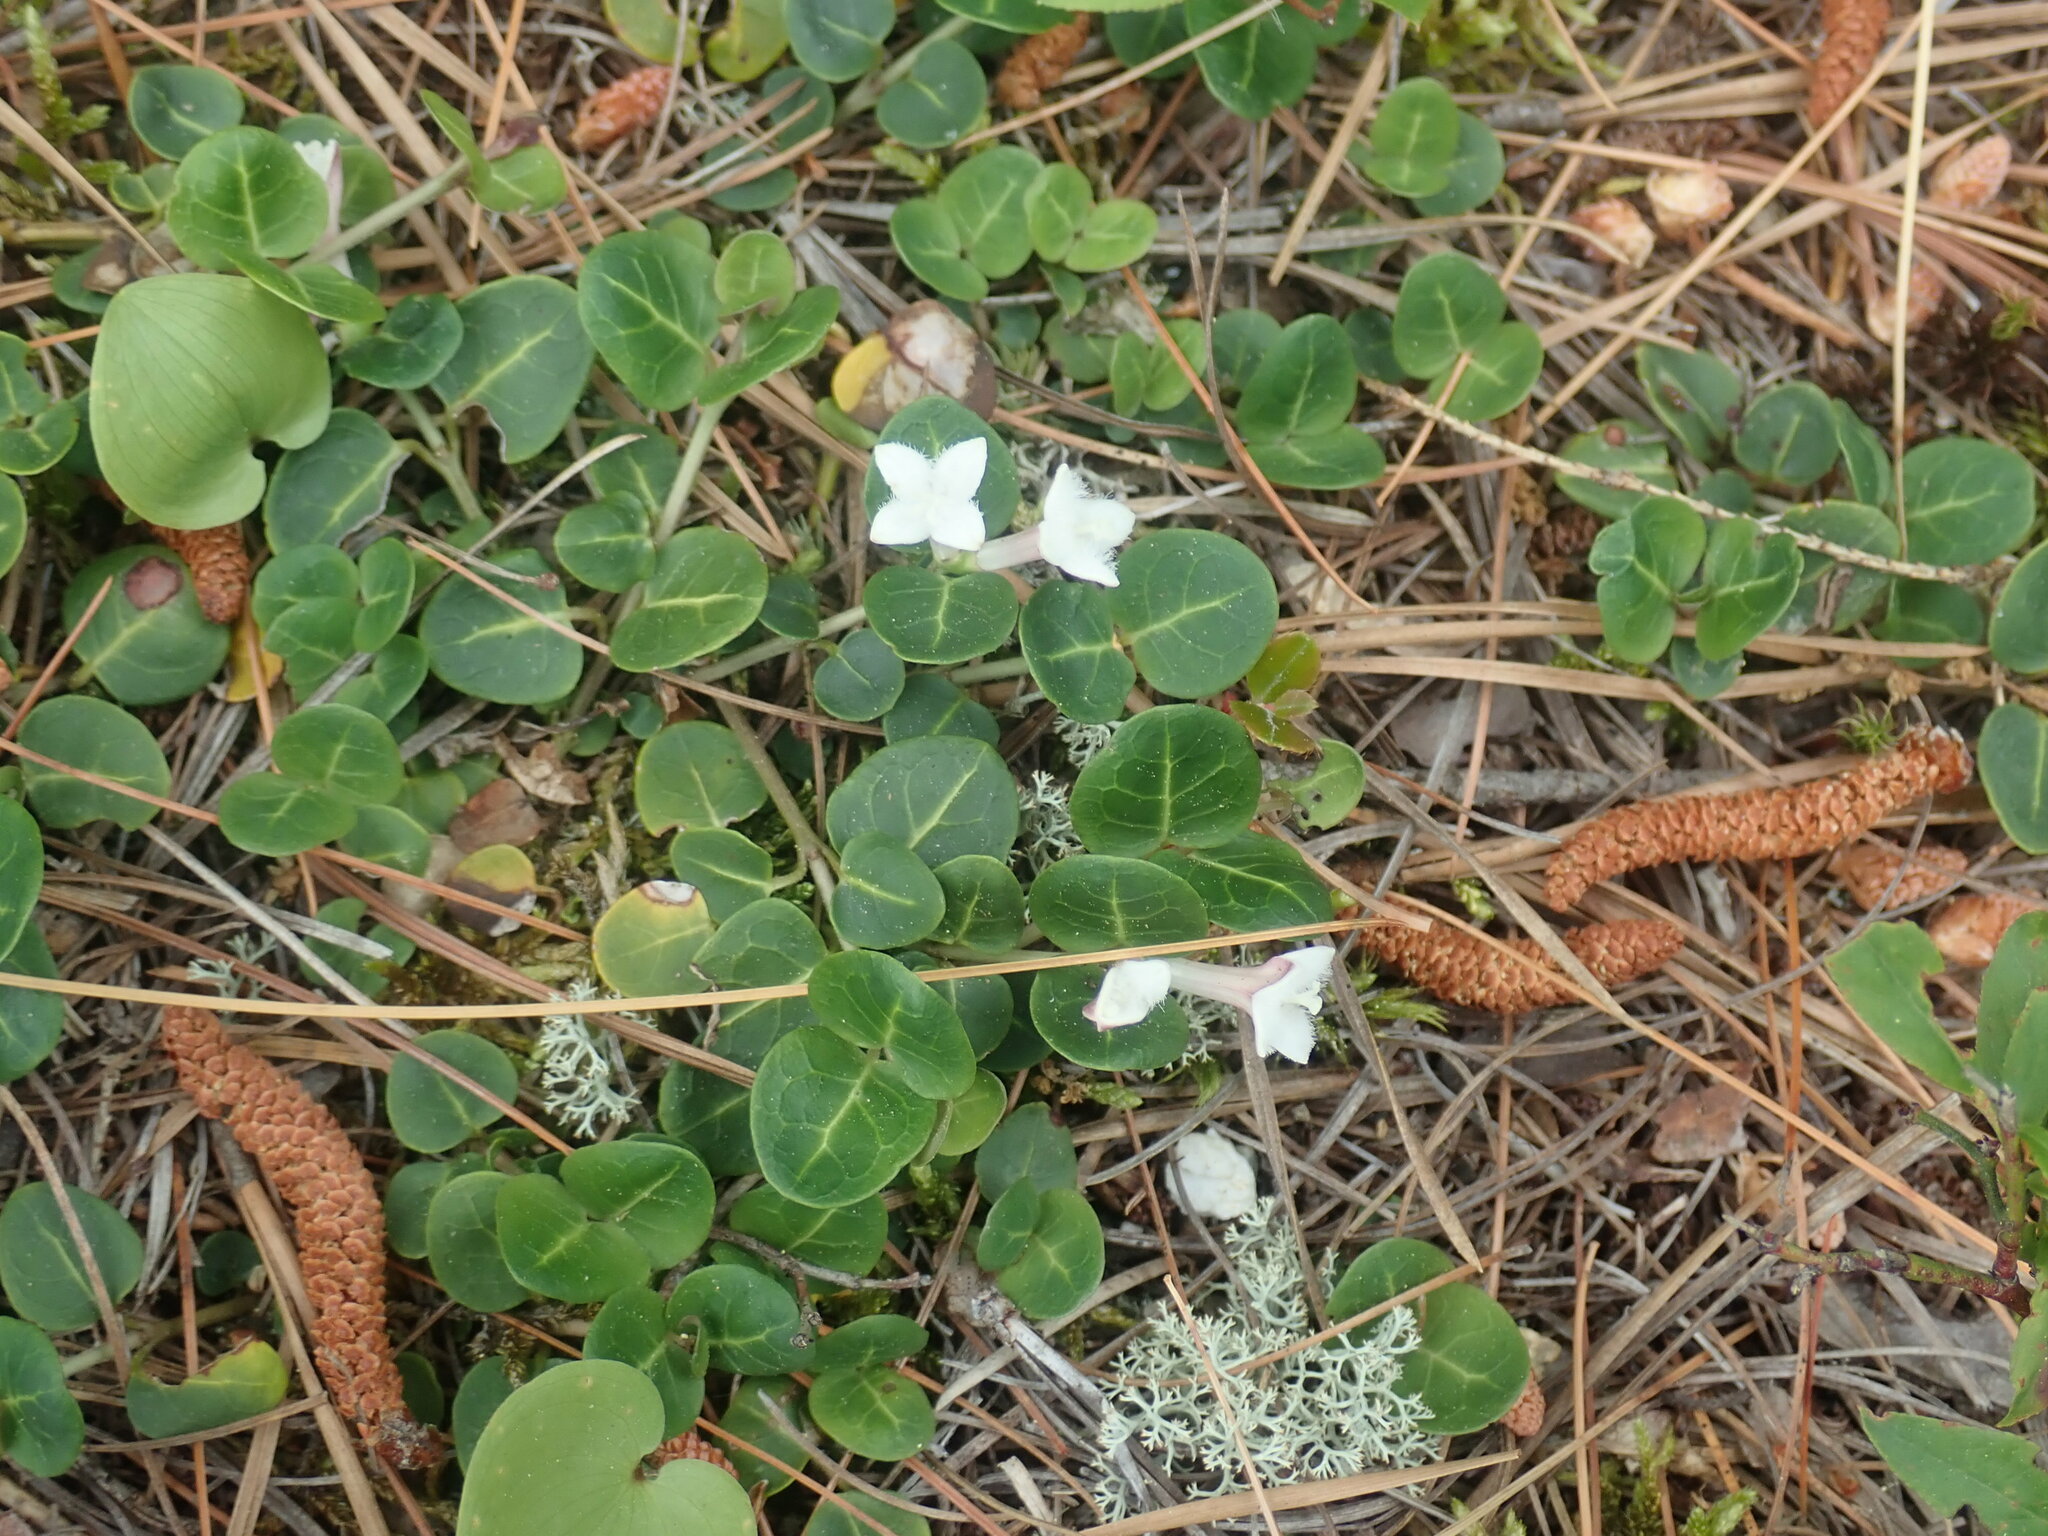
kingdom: Plantae
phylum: Tracheophyta
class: Magnoliopsida
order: Gentianales
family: Rubiaceae
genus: Mitchella
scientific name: Mitchella repens
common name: Partridge-berry
